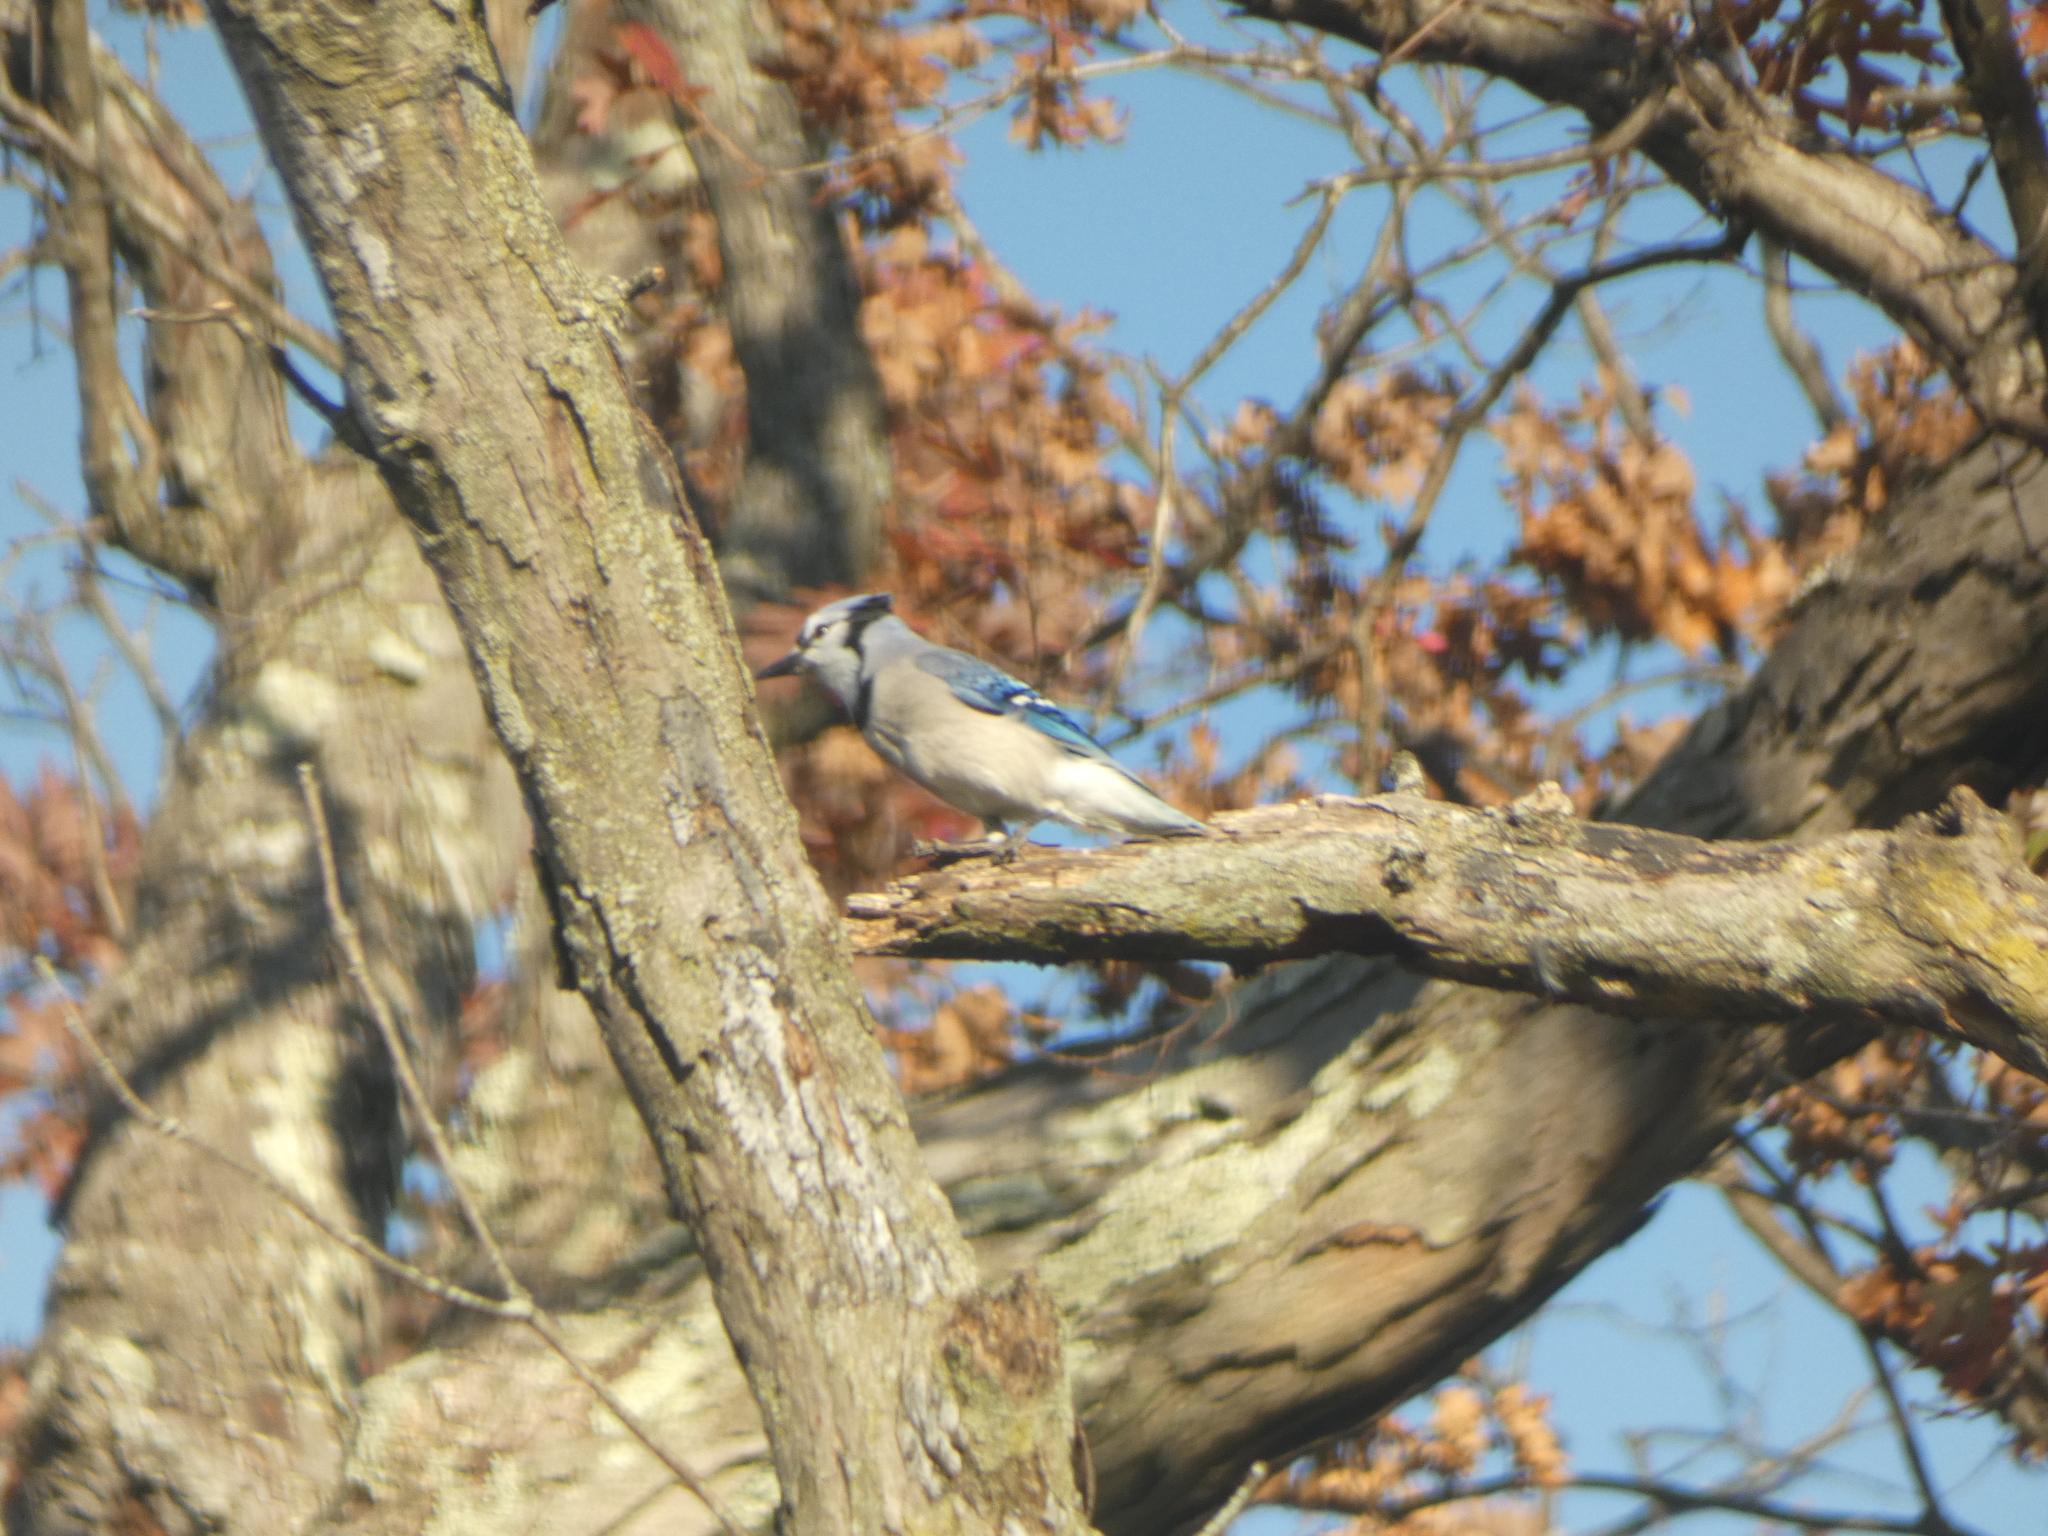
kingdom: Animalia
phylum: Chordata
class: Aves
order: Passeriformes
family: Corvidae
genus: Cyanocitta
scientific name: Cyanocitta cristata
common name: Blue jay
